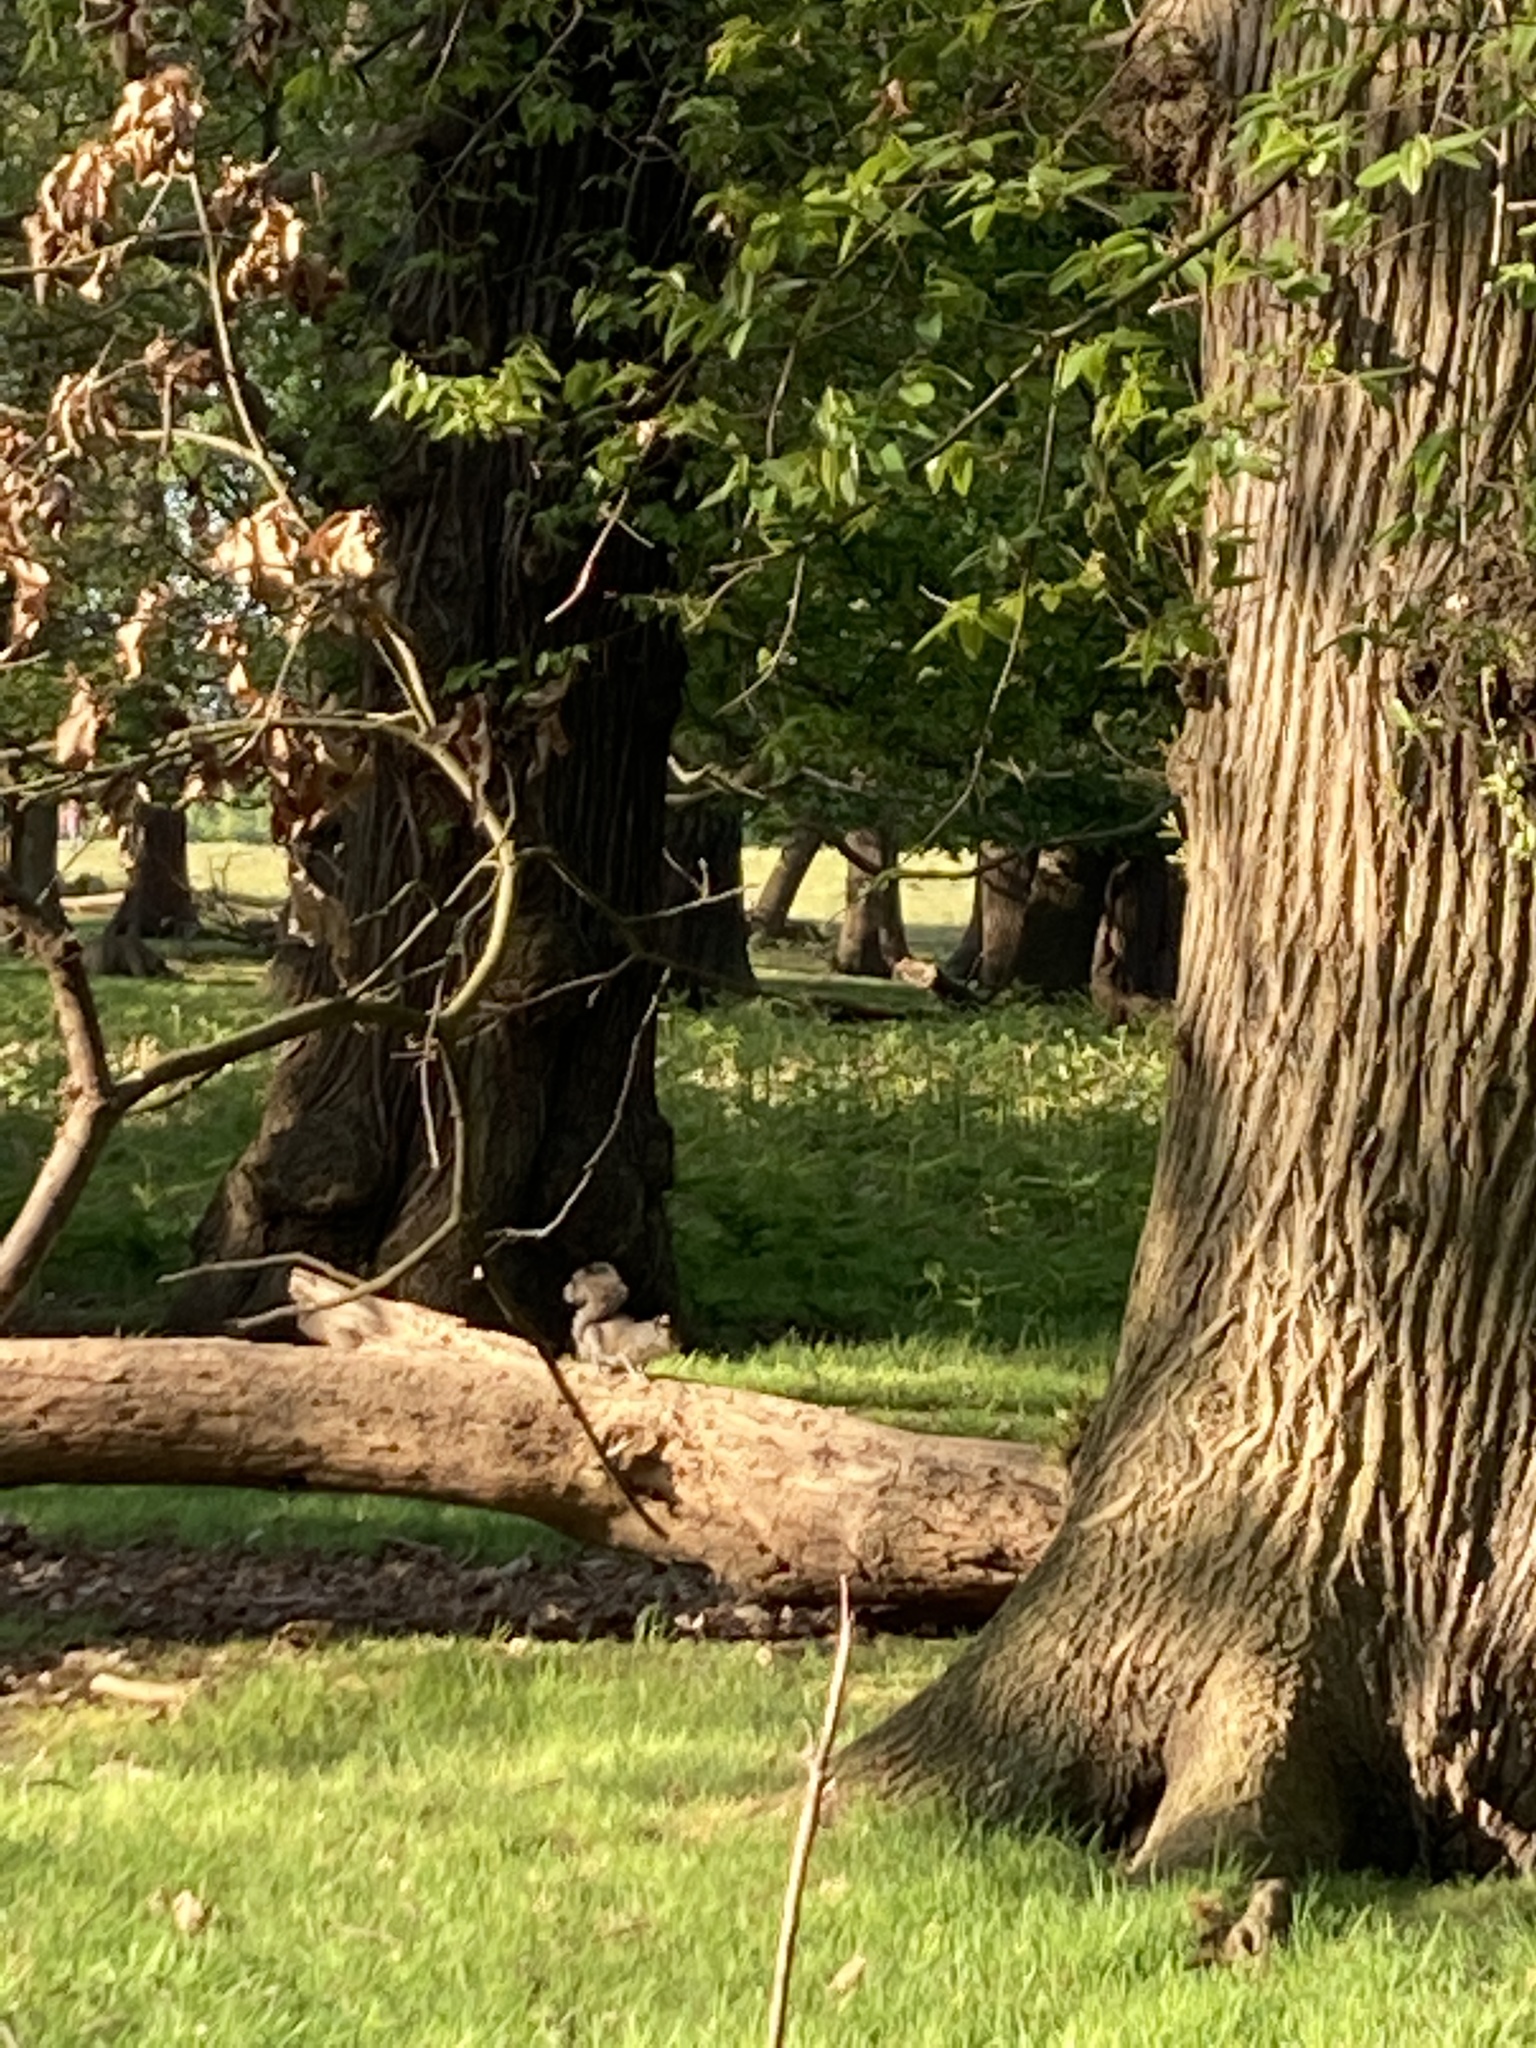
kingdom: Animalia
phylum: Chordata
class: Mammalia
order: Rodentia
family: Sciuridae
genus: Sciurus
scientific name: Sciurus carolinensis
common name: Eastern gray squirrel
